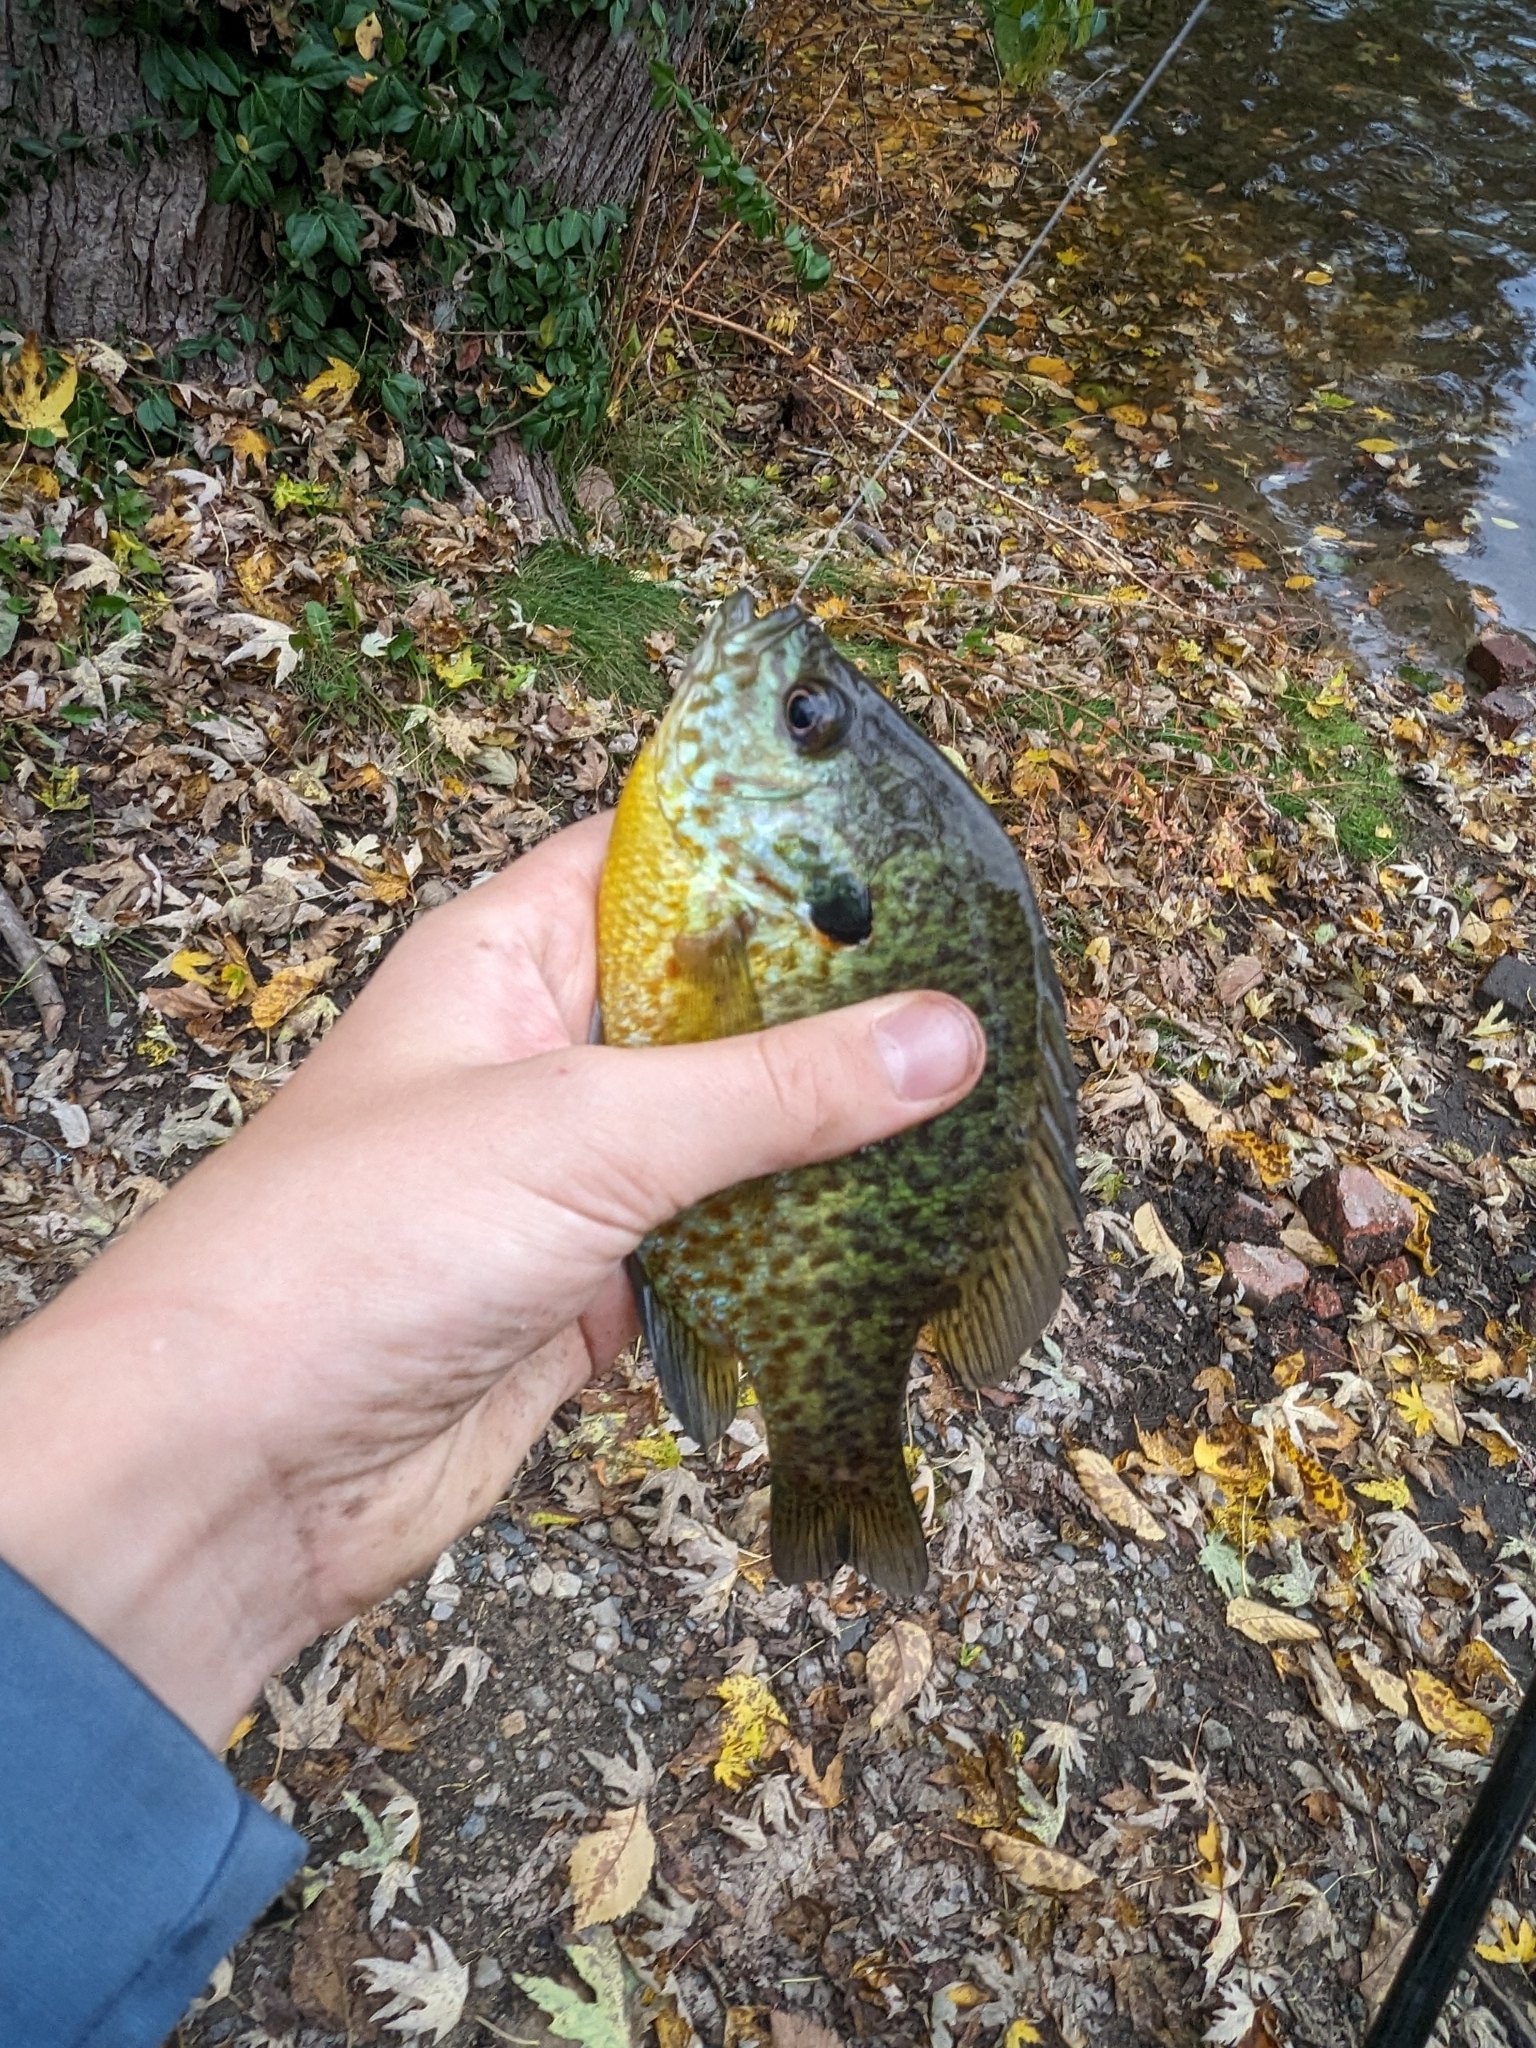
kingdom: Animalia
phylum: Chordata
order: Perciformes
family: Centrarchidae
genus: Lepomis
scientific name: Lepomis
